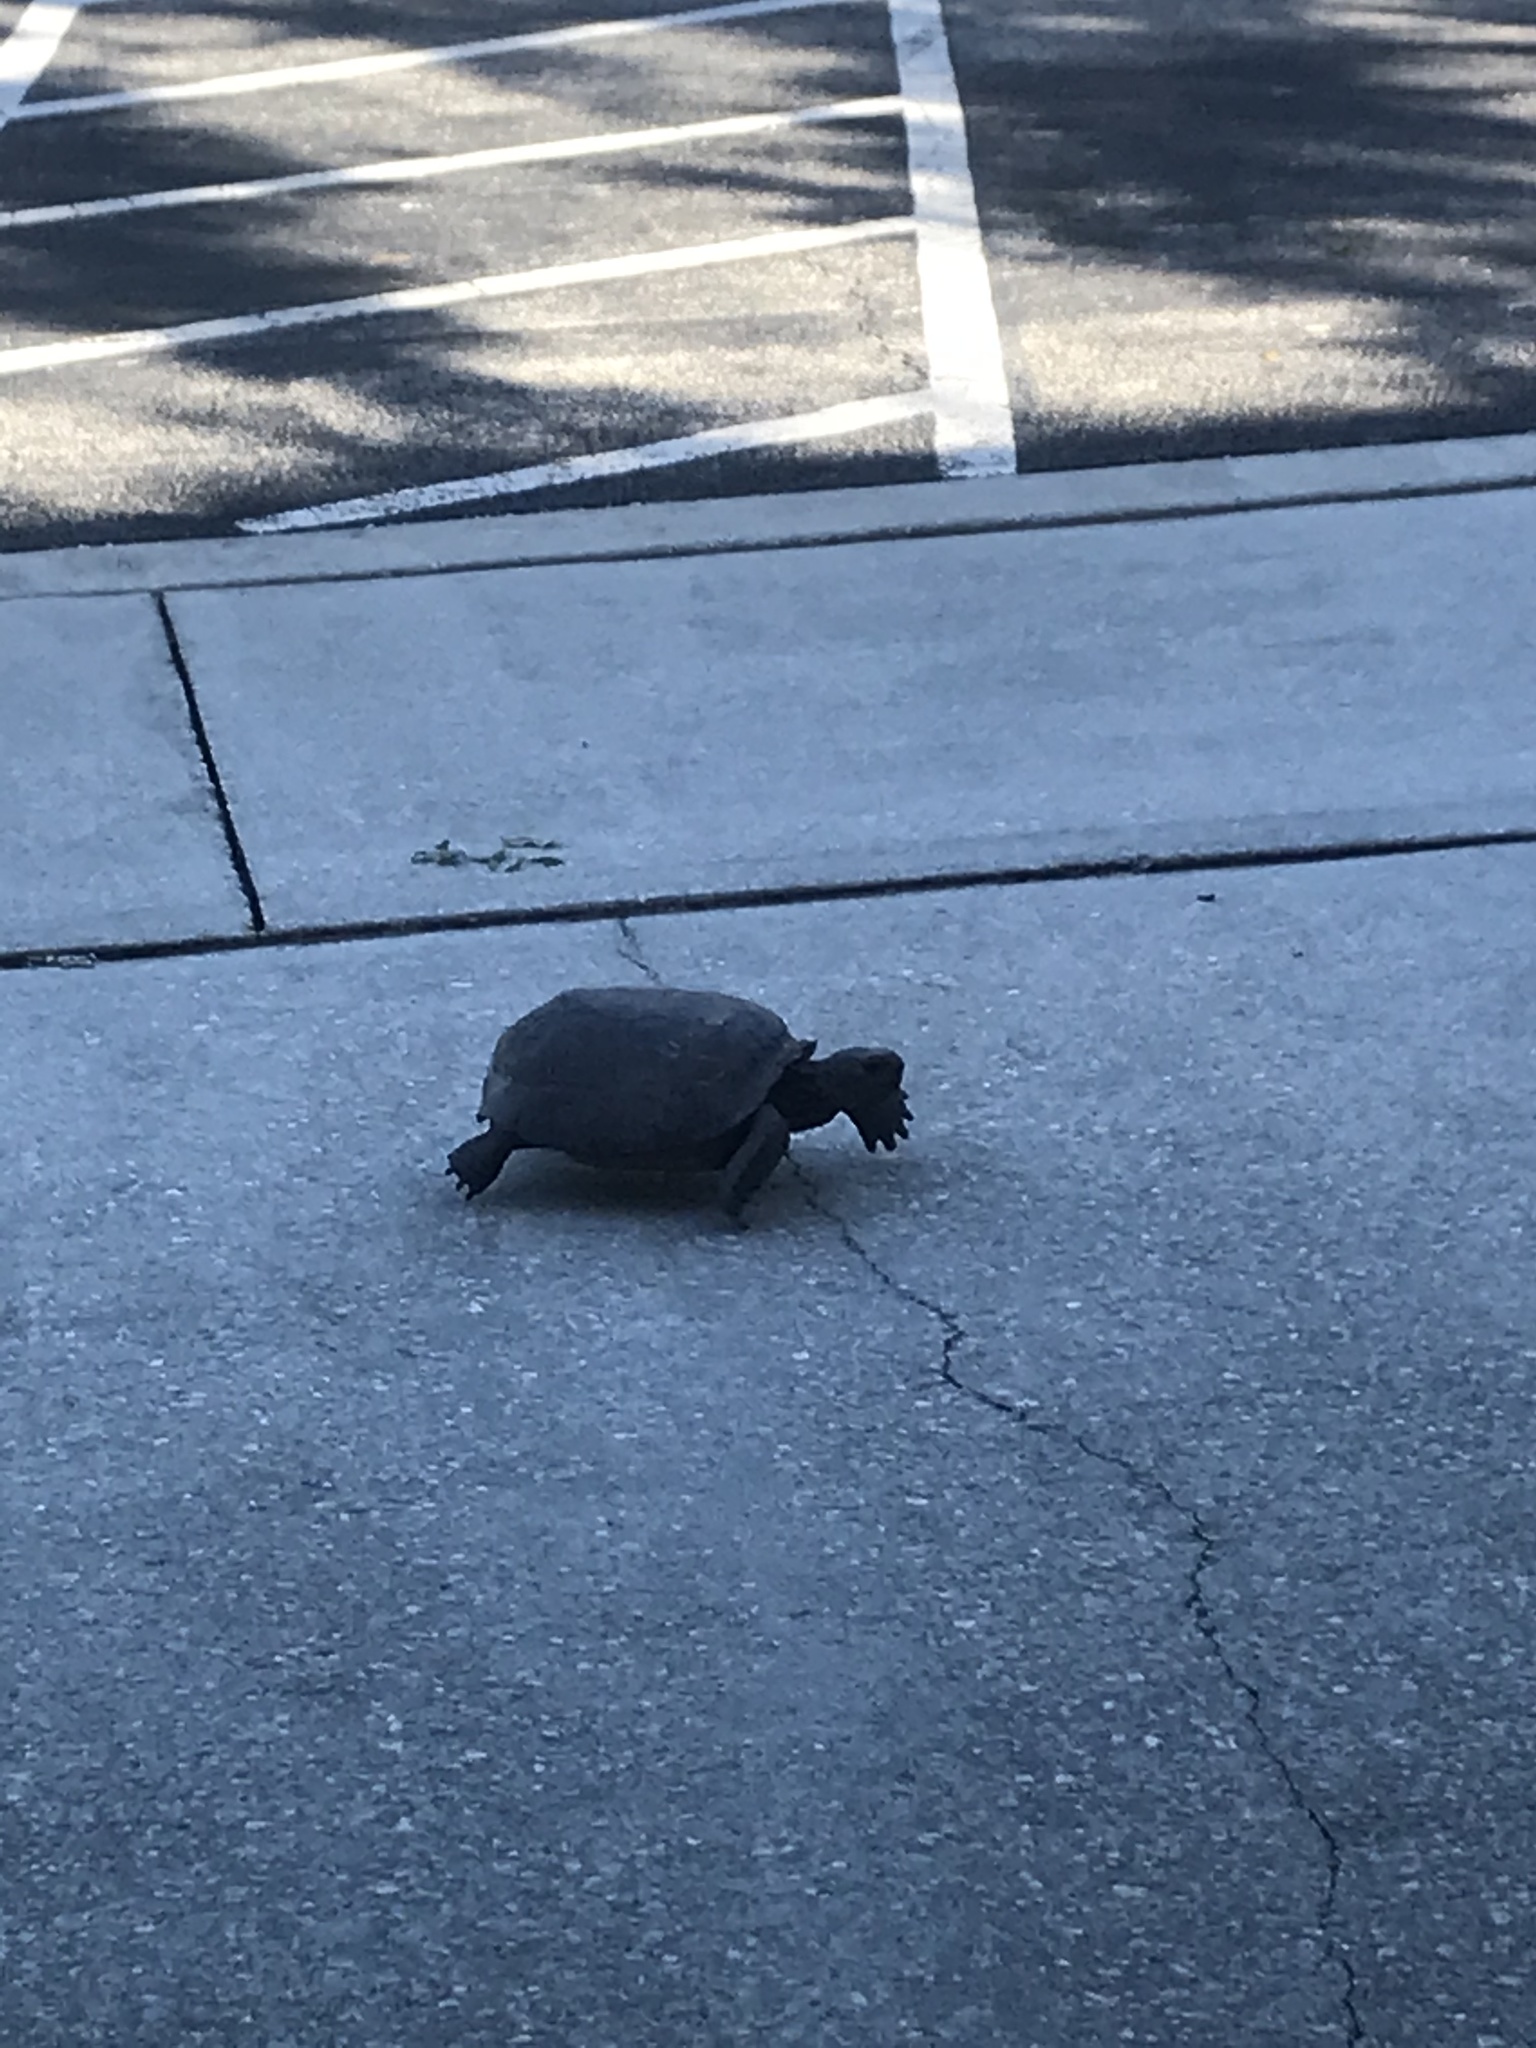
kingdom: Animalia
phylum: Chordata
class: Testudines
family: Testudinidae
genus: Gopherus
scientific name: Gopherus polyphemus
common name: Florida gopher tortoise
